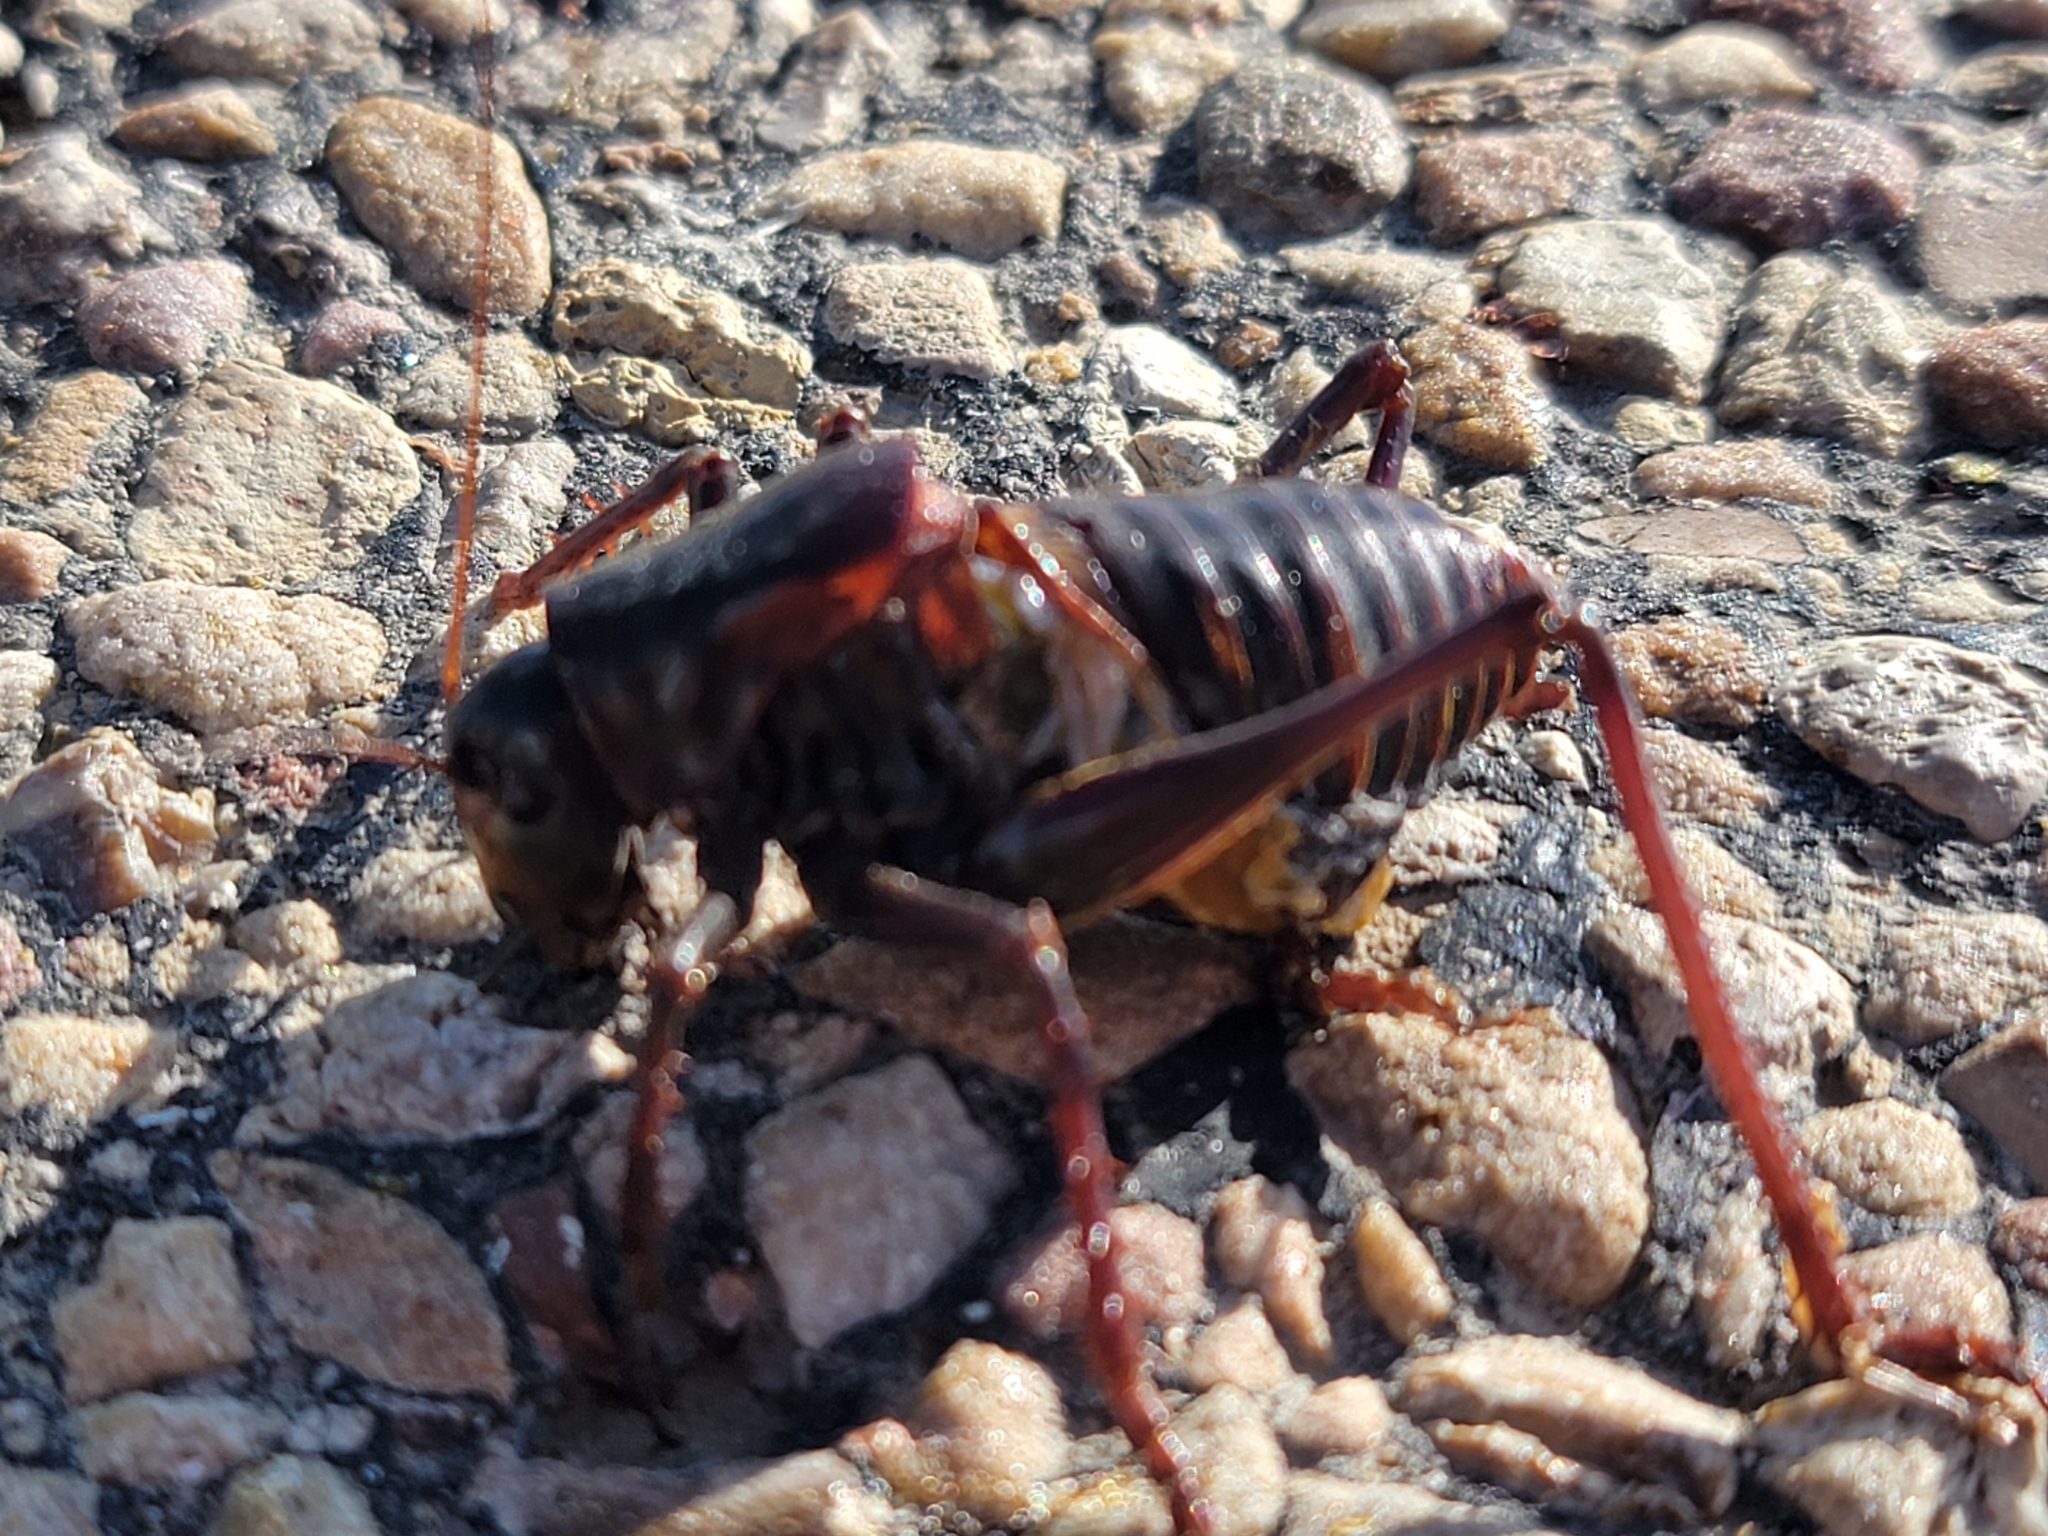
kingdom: Animalia
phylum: Arthropoda
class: Insecta
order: Orthoptera
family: Tettigoniidae
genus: Anabrus
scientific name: Anabrus simplex
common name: Mormon cricket
